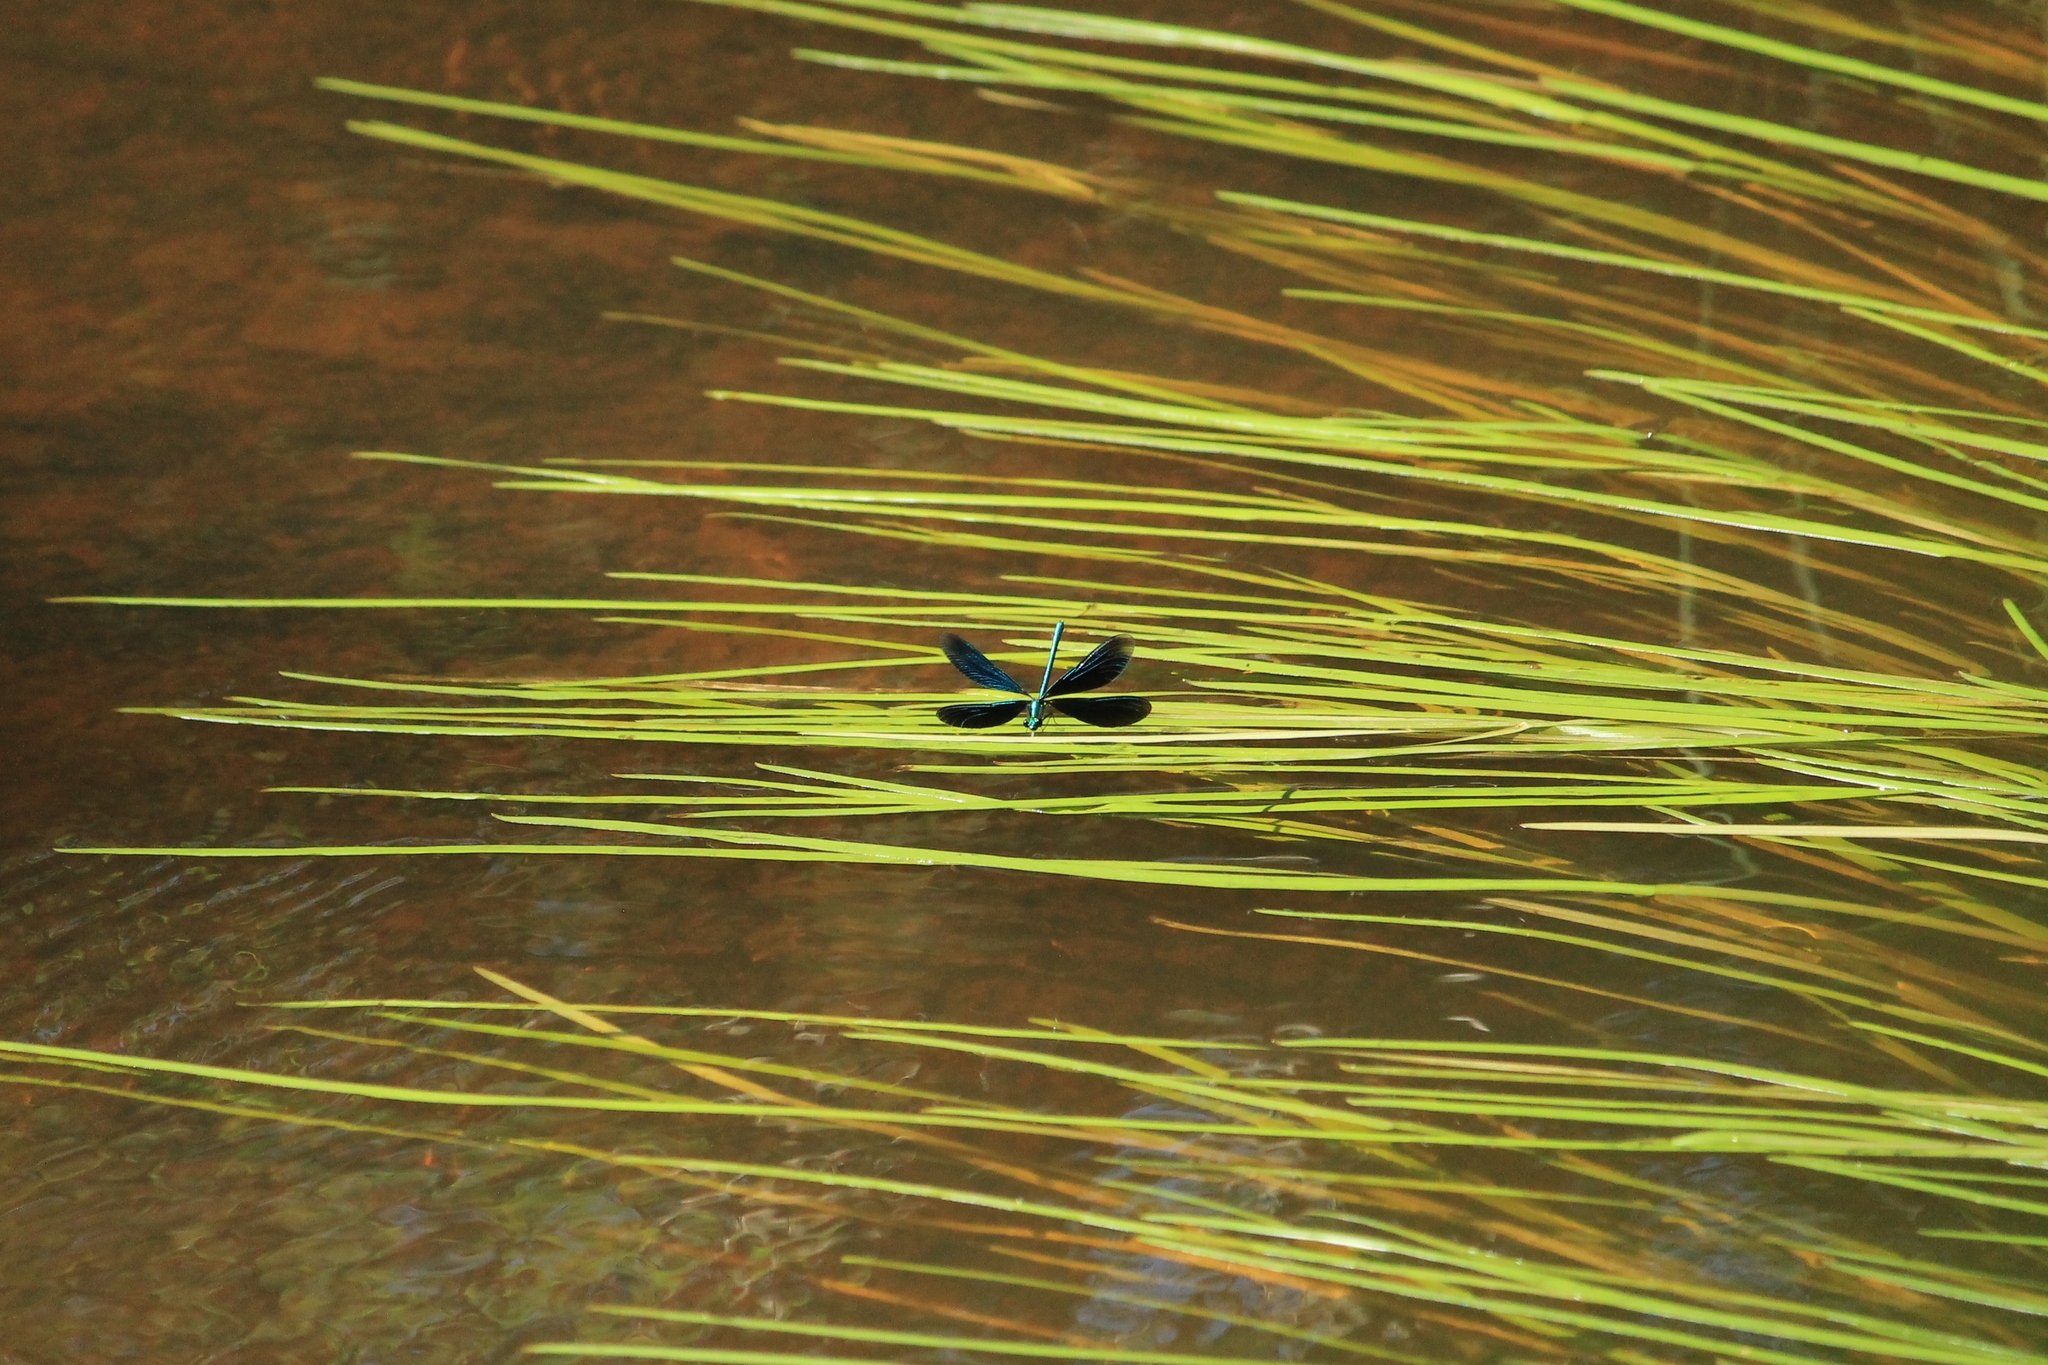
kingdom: Animalia
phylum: Arthropoda
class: Insecta
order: Odonata
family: Calopterygidae
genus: Calopteryx
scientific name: Calopteryx virgo
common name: Beautiful demoiselle
